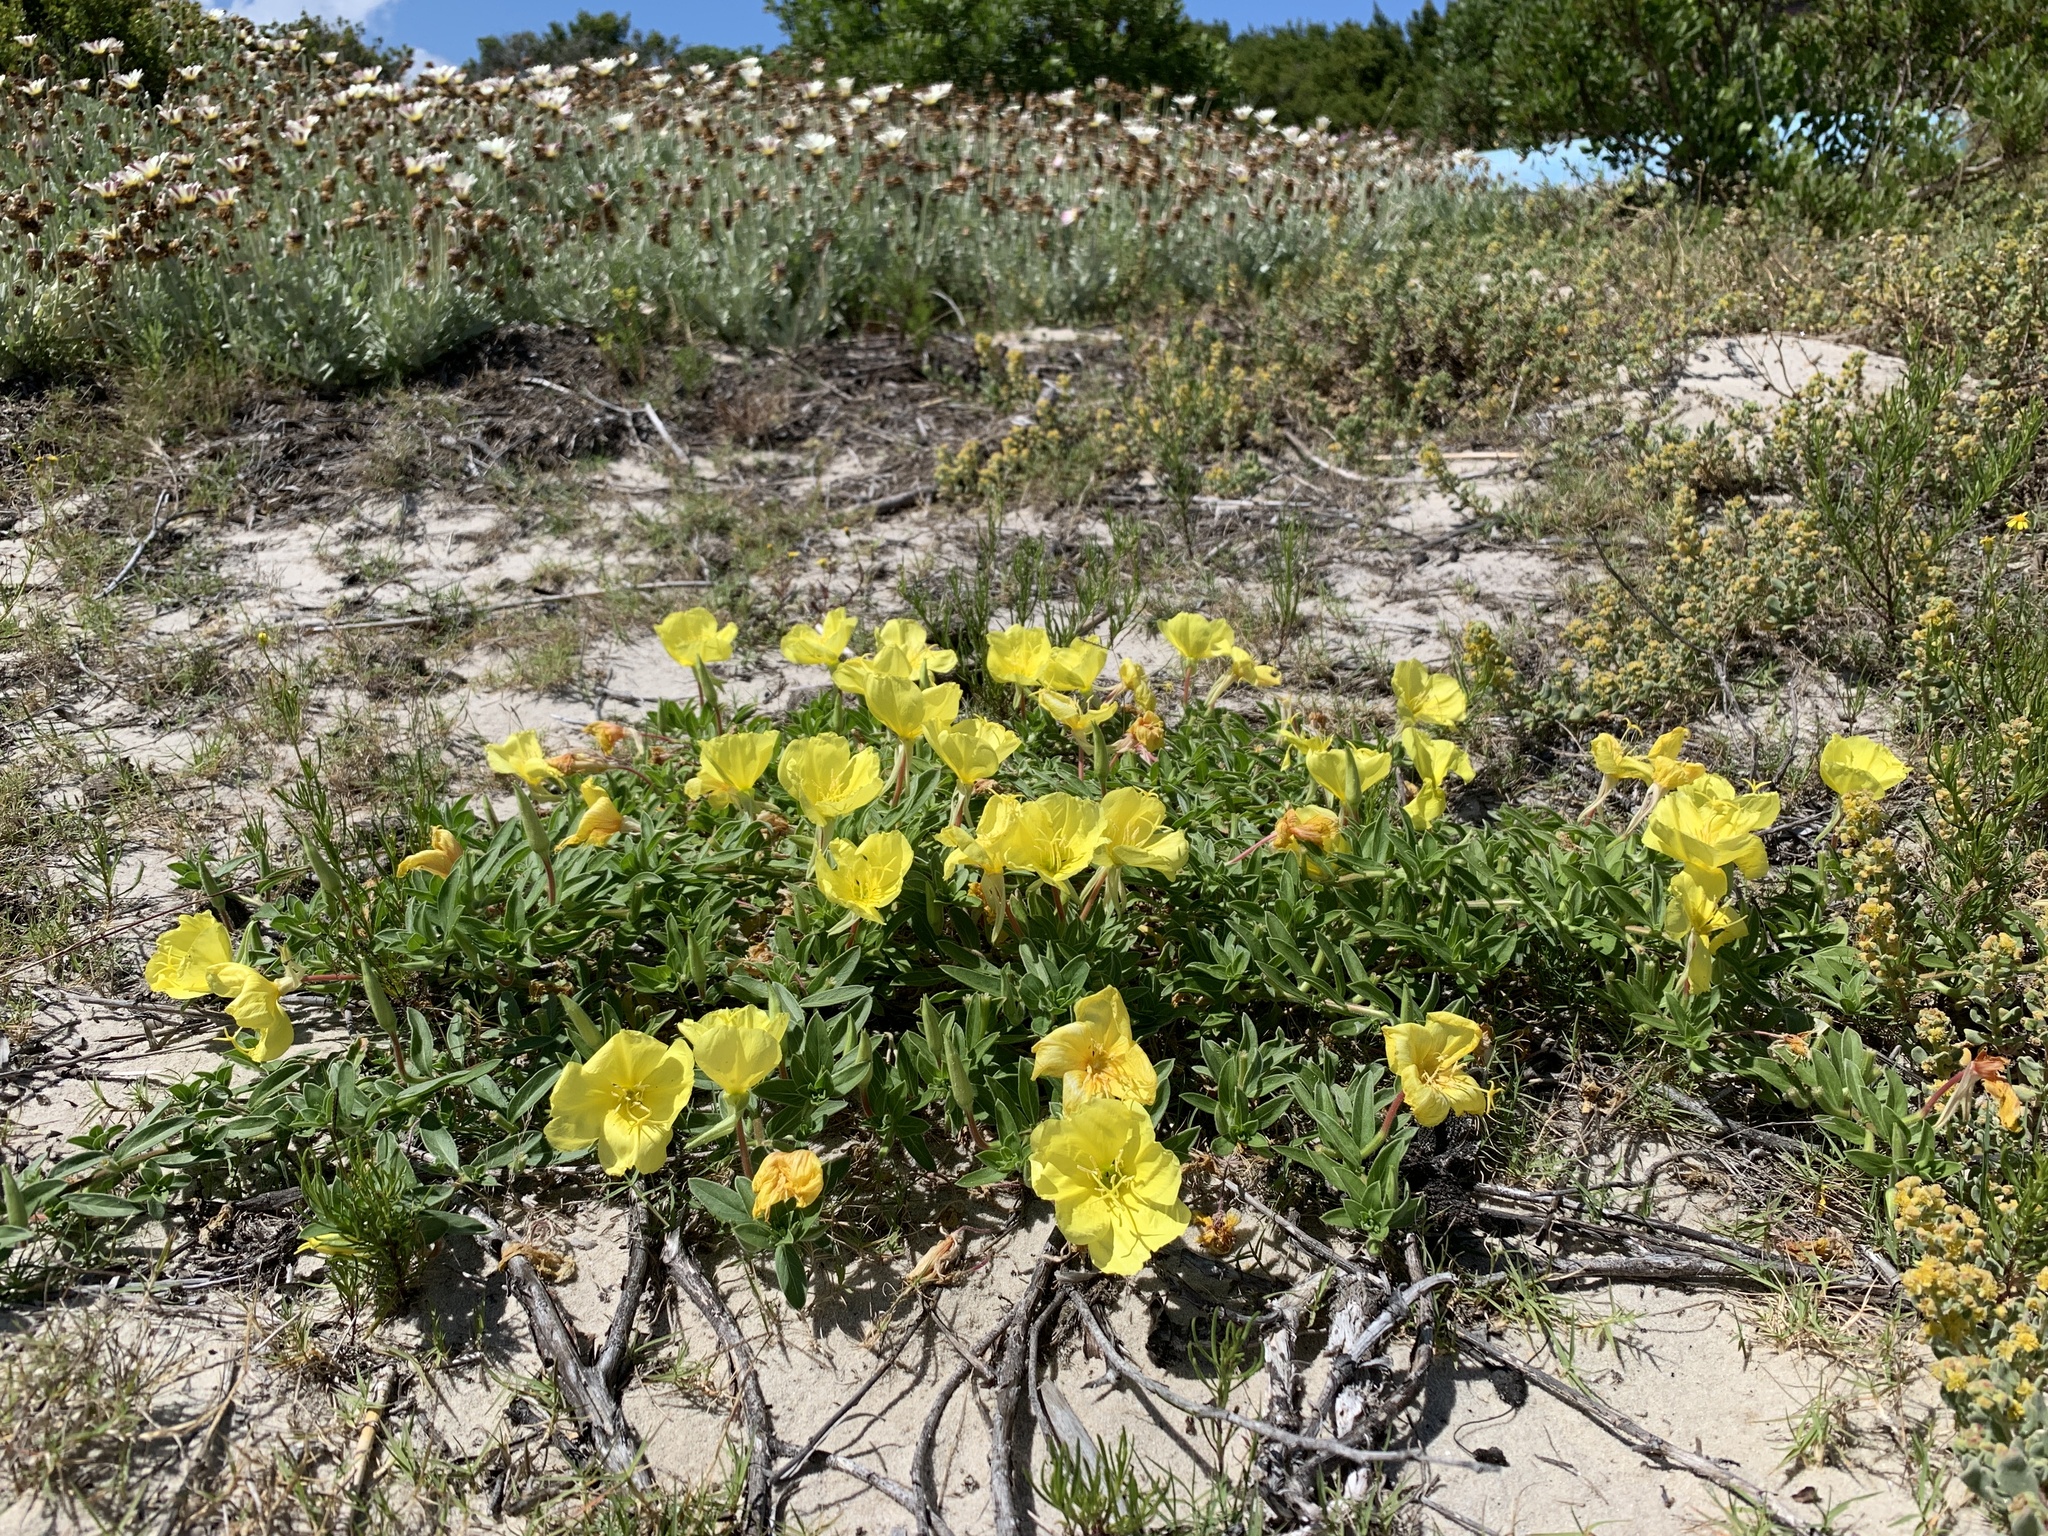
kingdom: Plantae
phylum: Tracheophyta
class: Magnoliopsida
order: Myrtales
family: Onagraceae
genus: Oenothera
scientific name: Oenothera drummondii
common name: Beach evening-primrose
